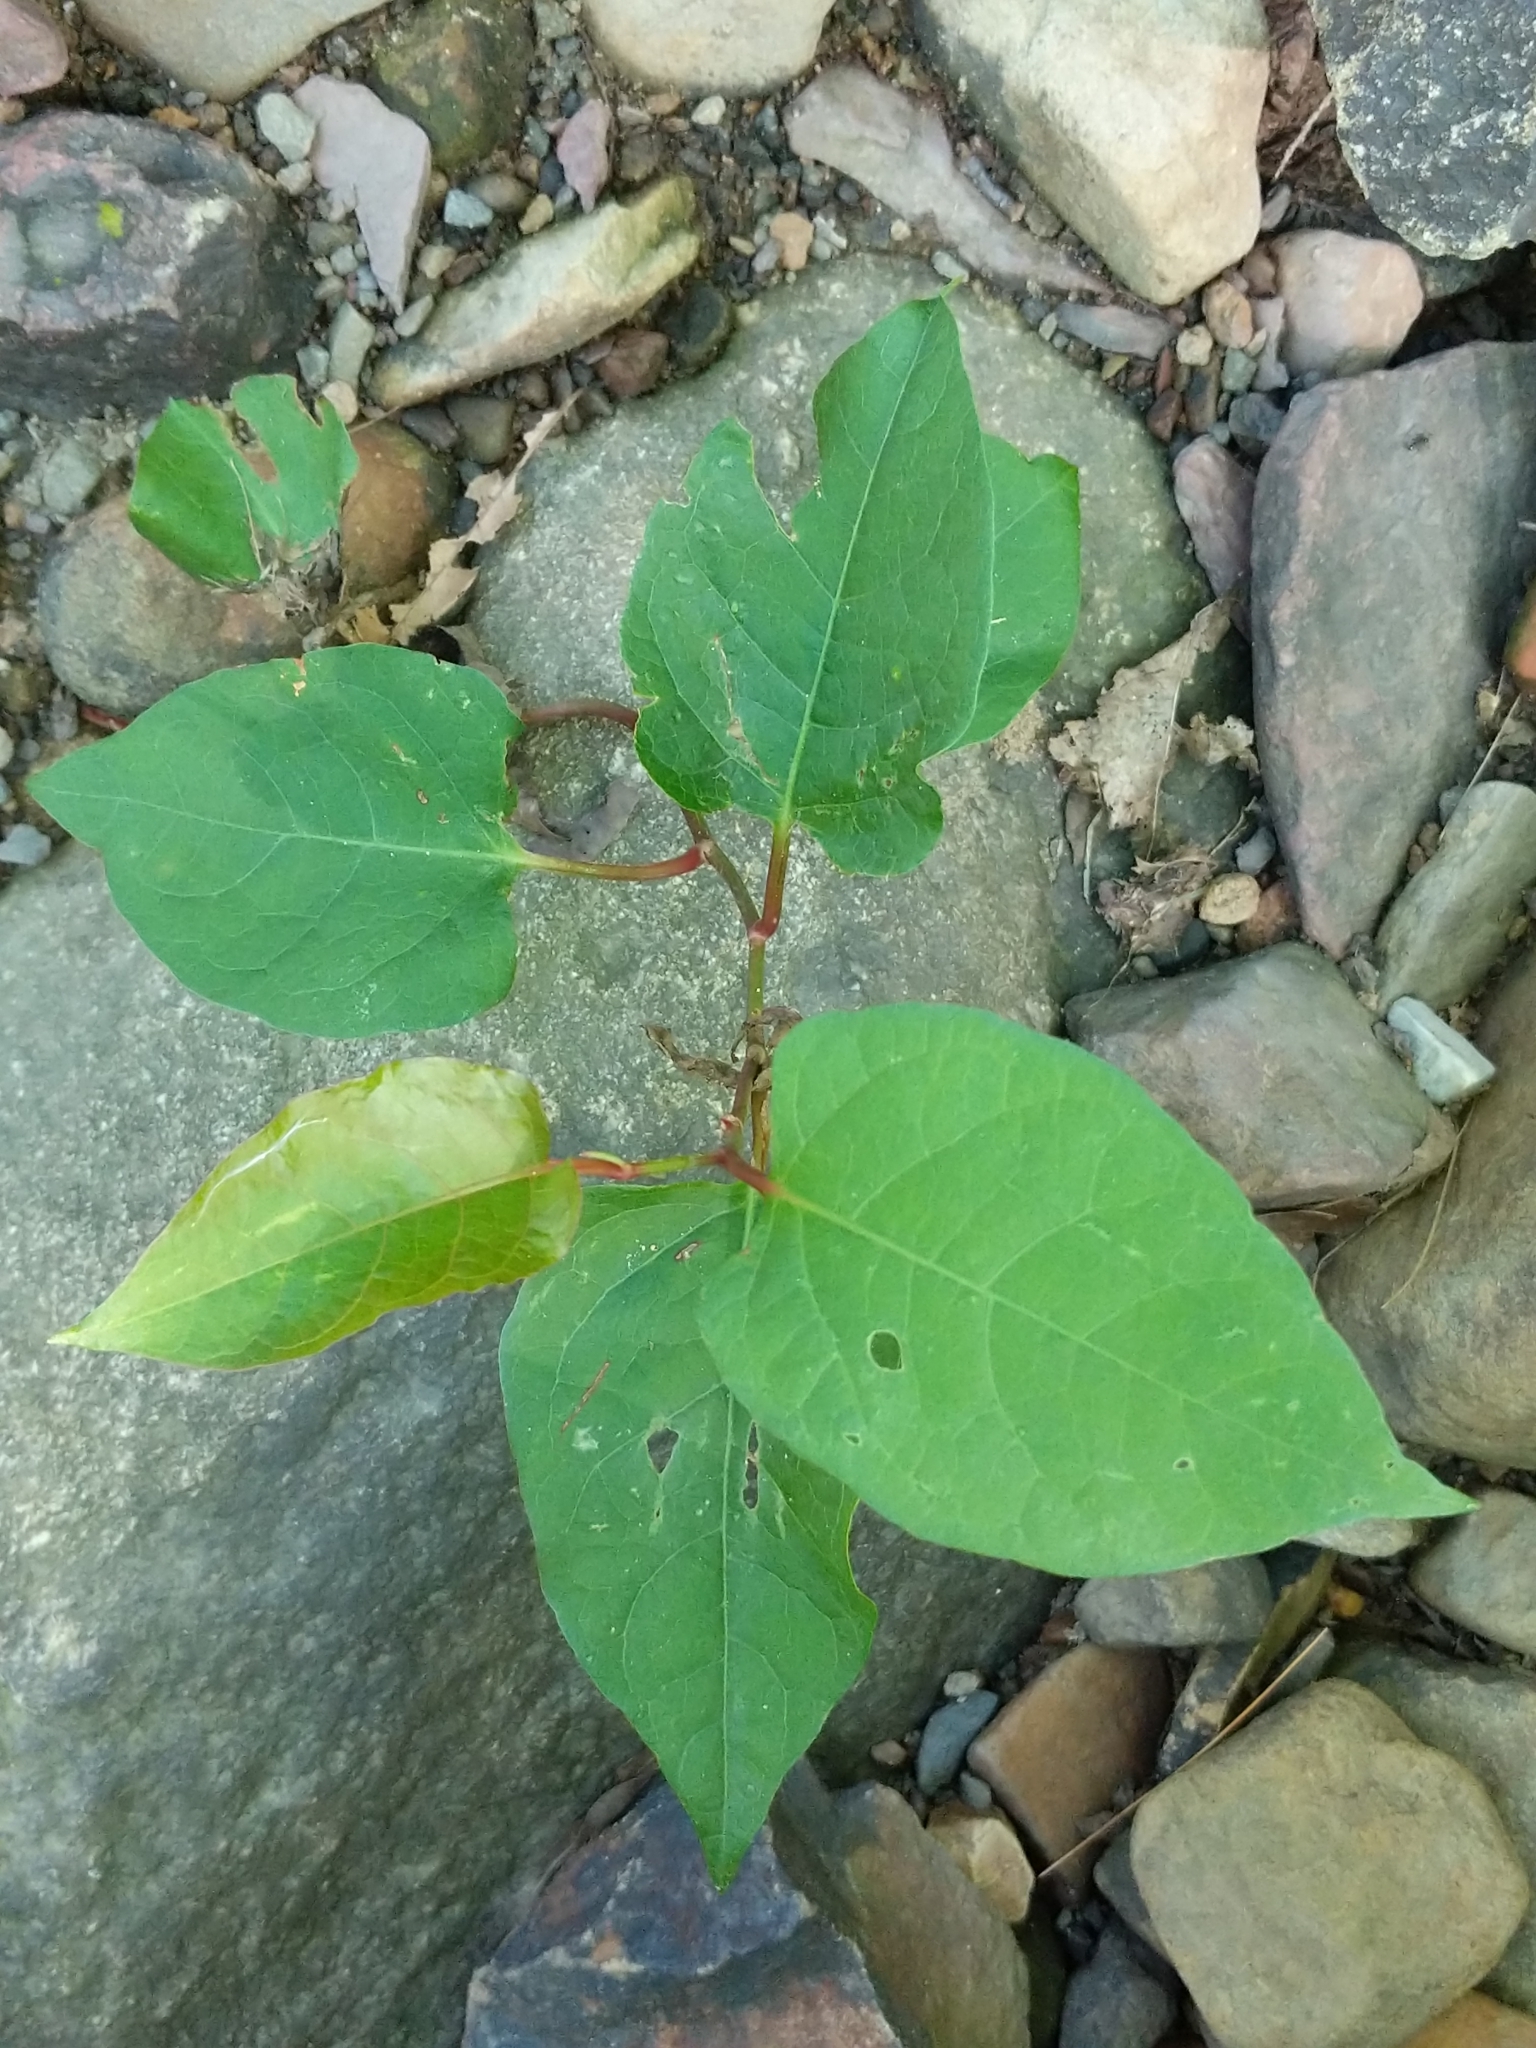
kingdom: Plantae
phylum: Tracheophyta
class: Magnoliopsida
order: Caryophyllales
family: Polygonaceae
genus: Reynoutria
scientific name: Reynoutria japonica
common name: Japanese knotweed
